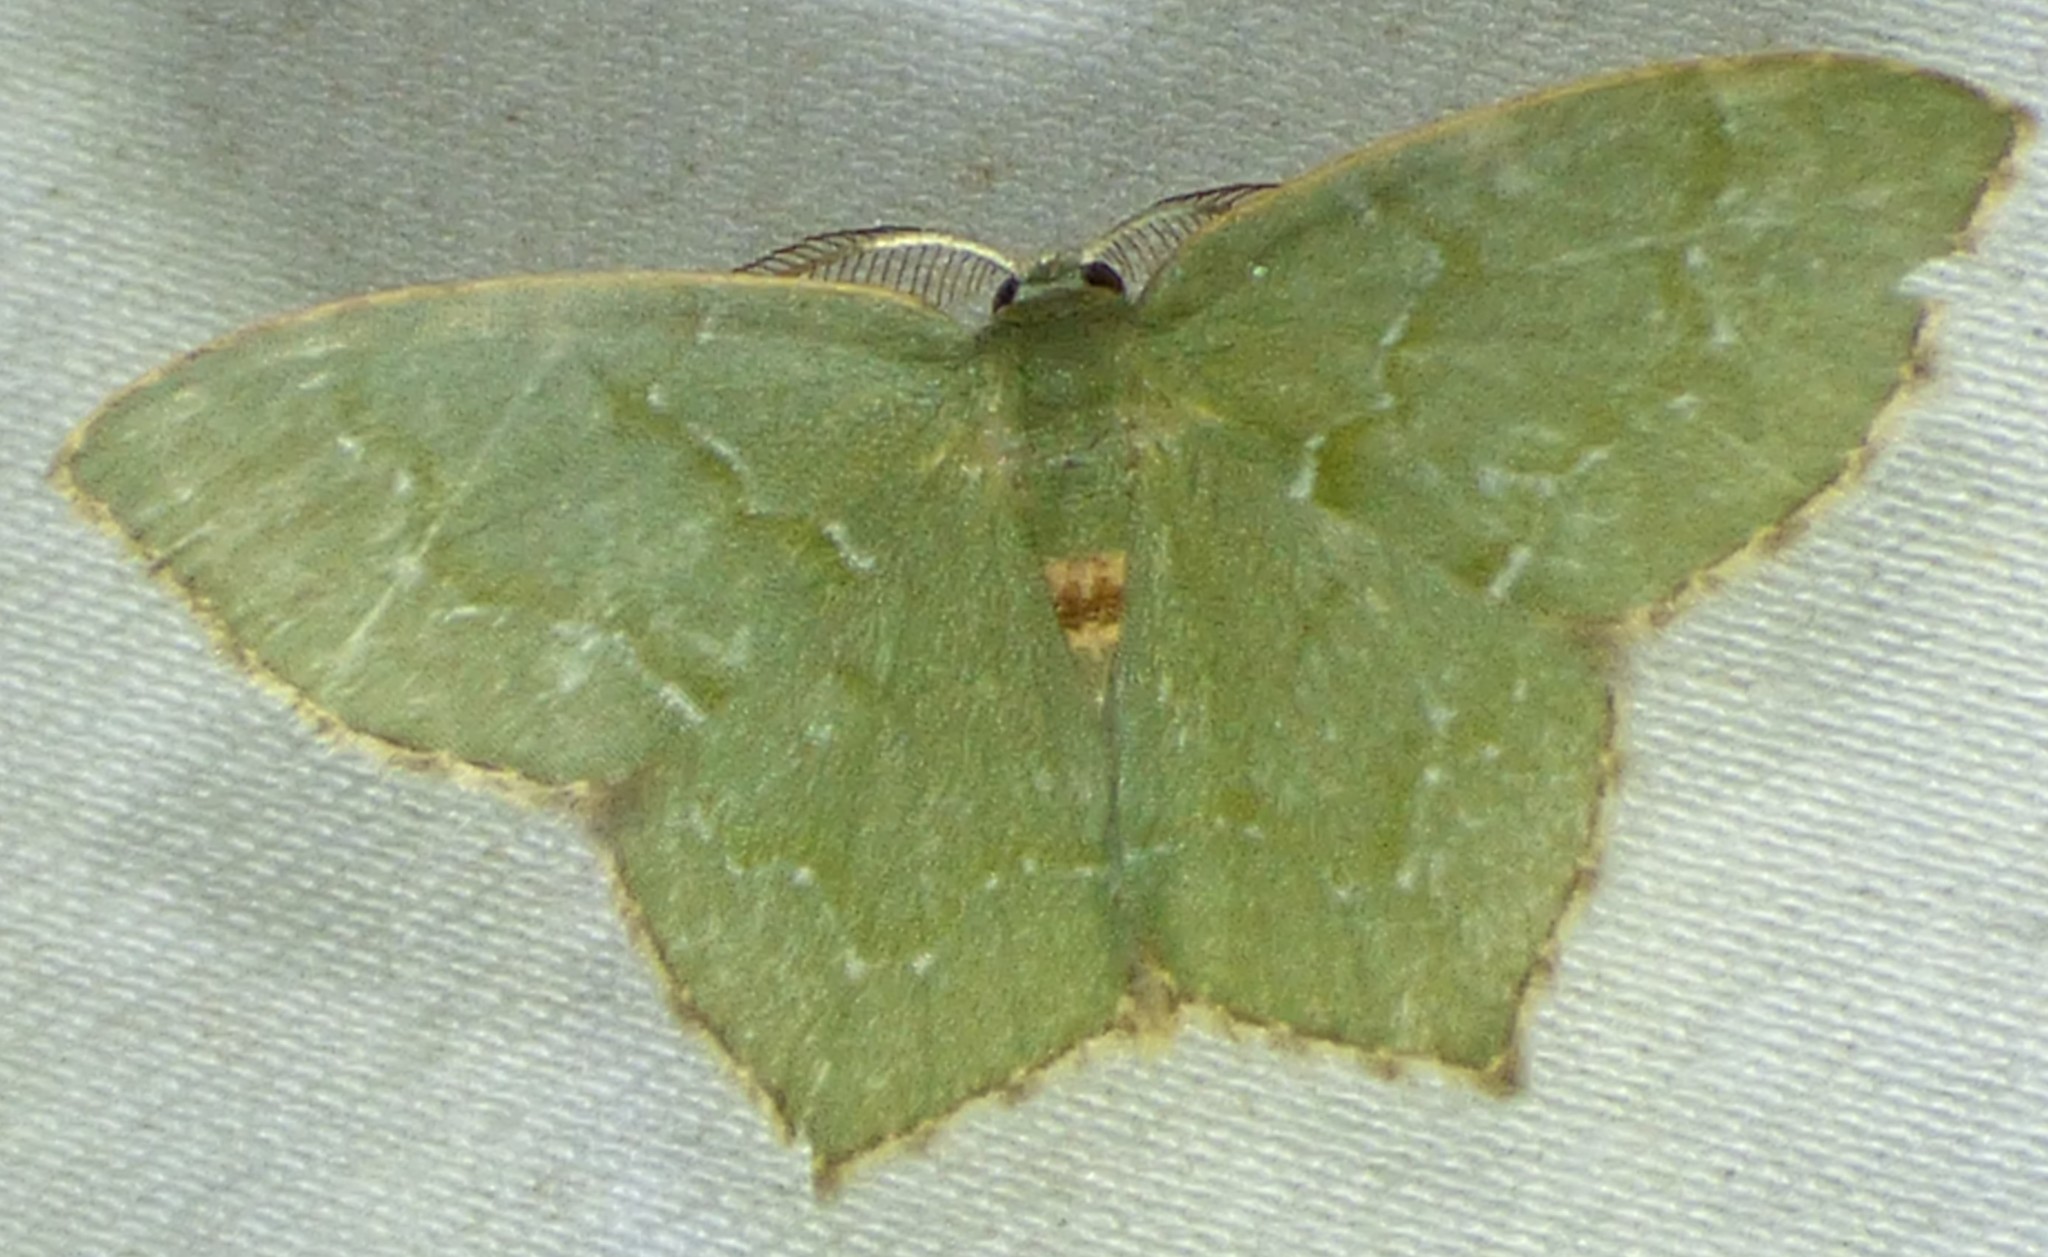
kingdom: Animalia
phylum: Arthropoda
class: Insecta
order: Lepidoptera
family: Geometridae
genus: Chloropteryx
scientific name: Chloropteryx tepperaria
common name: Angle winged emerald moth
